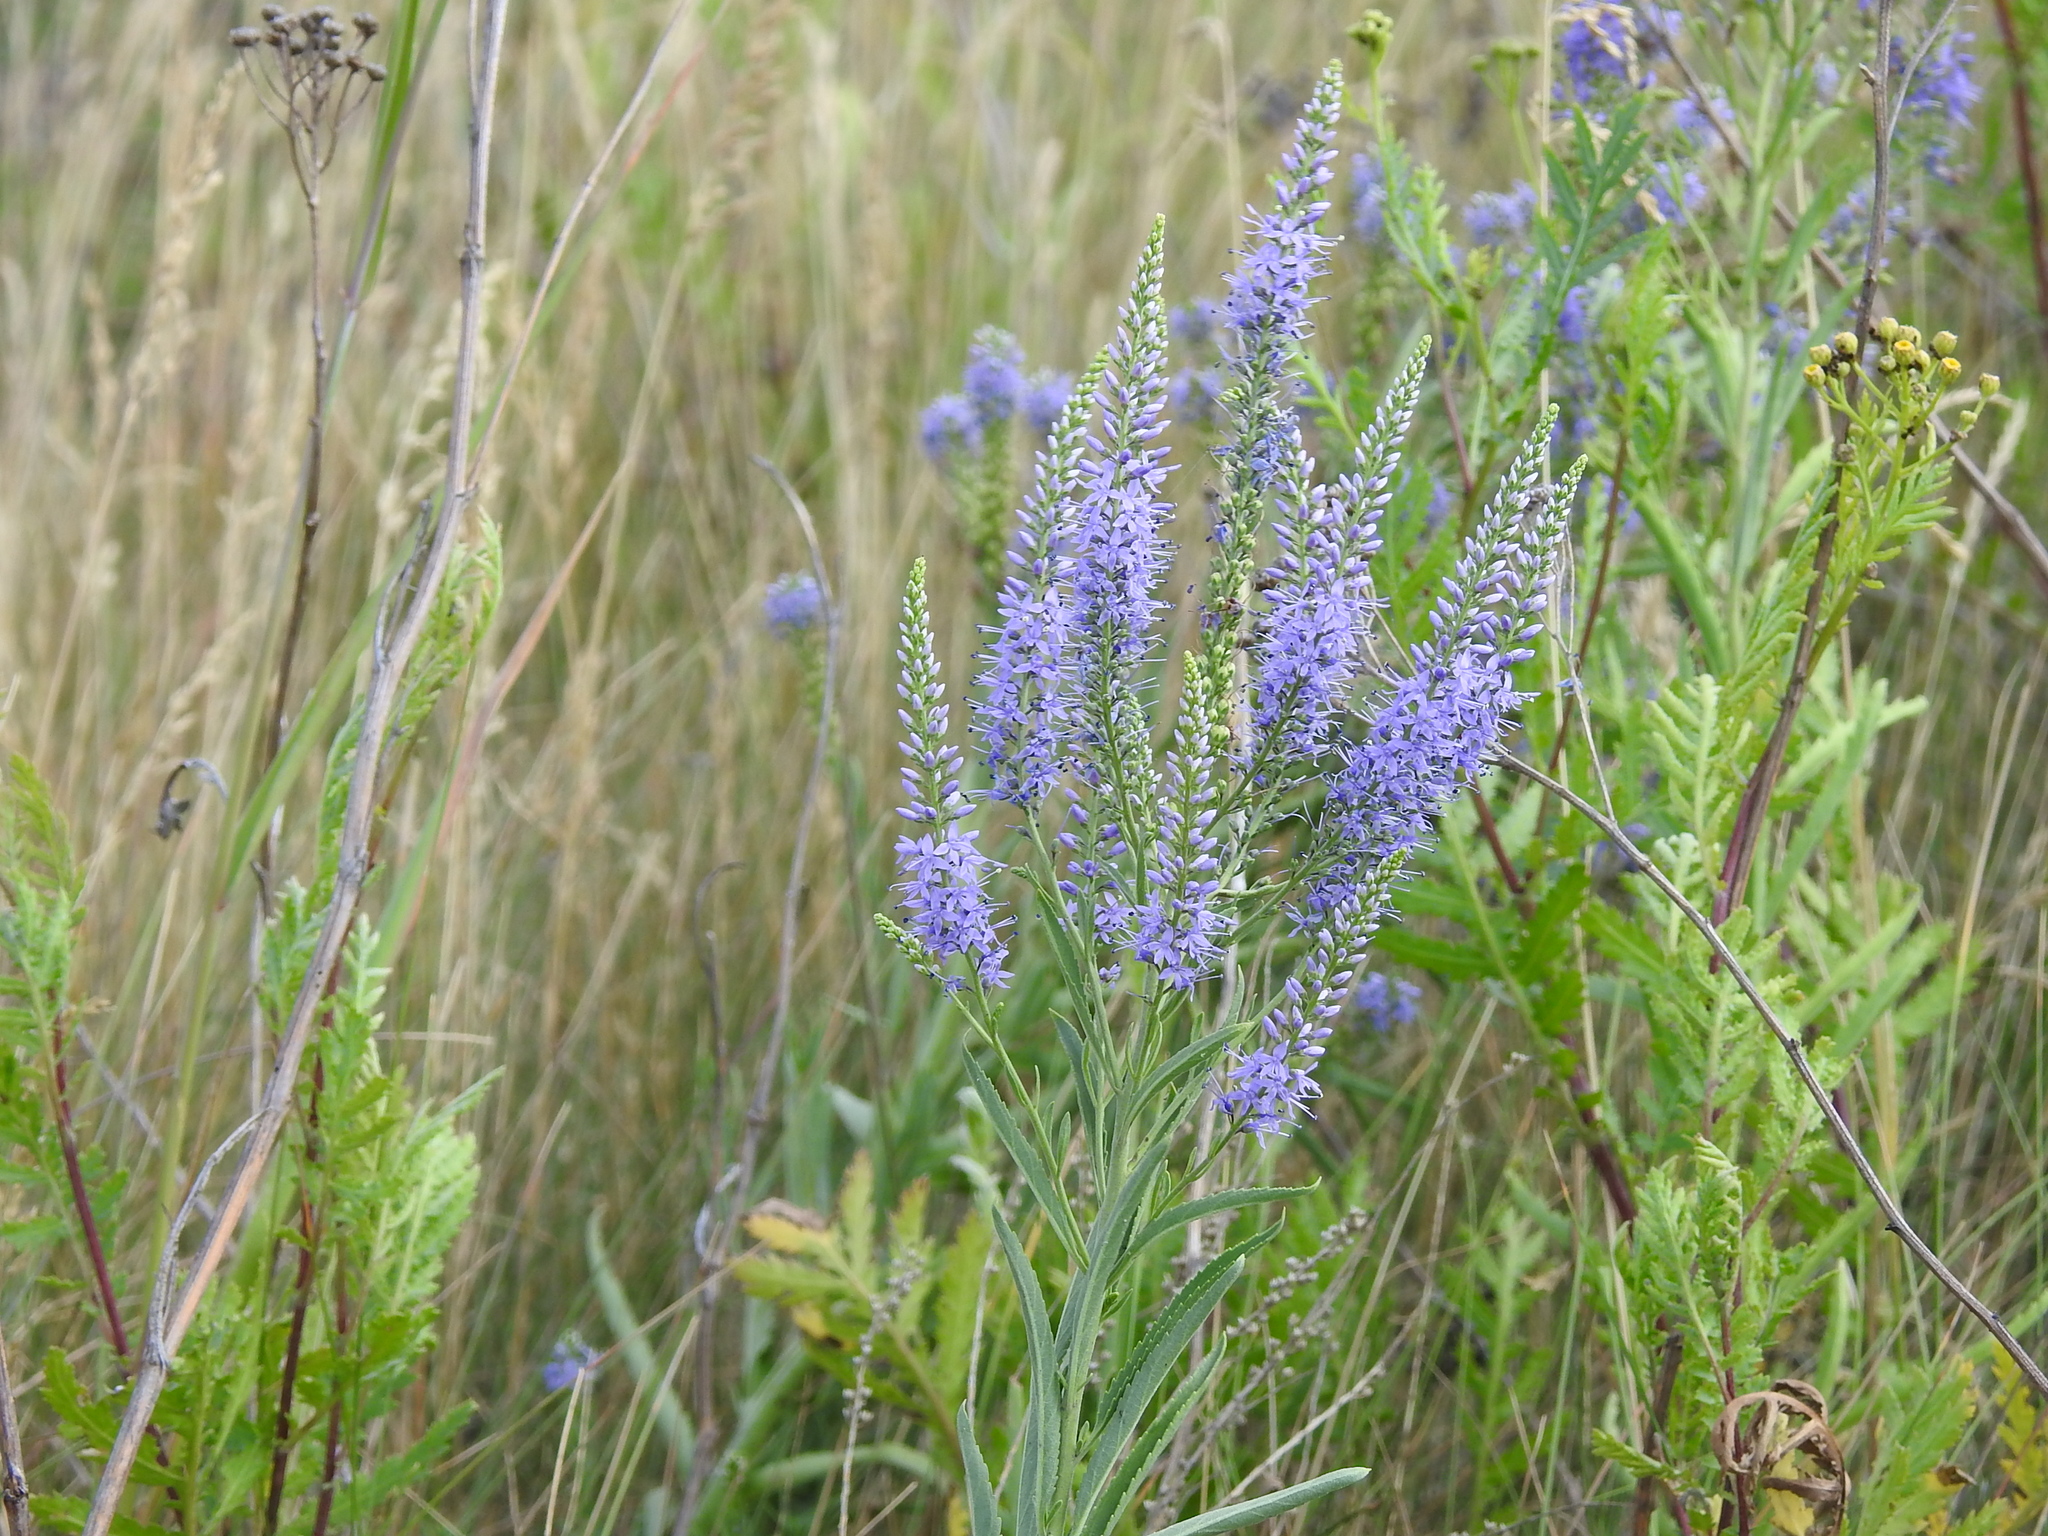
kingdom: Plantae
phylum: Tracheophyta
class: Magnoliopsida
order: Lamiales
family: Plantaginaceae
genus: Veronica
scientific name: Veronica spuria
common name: Bastard speedwell
